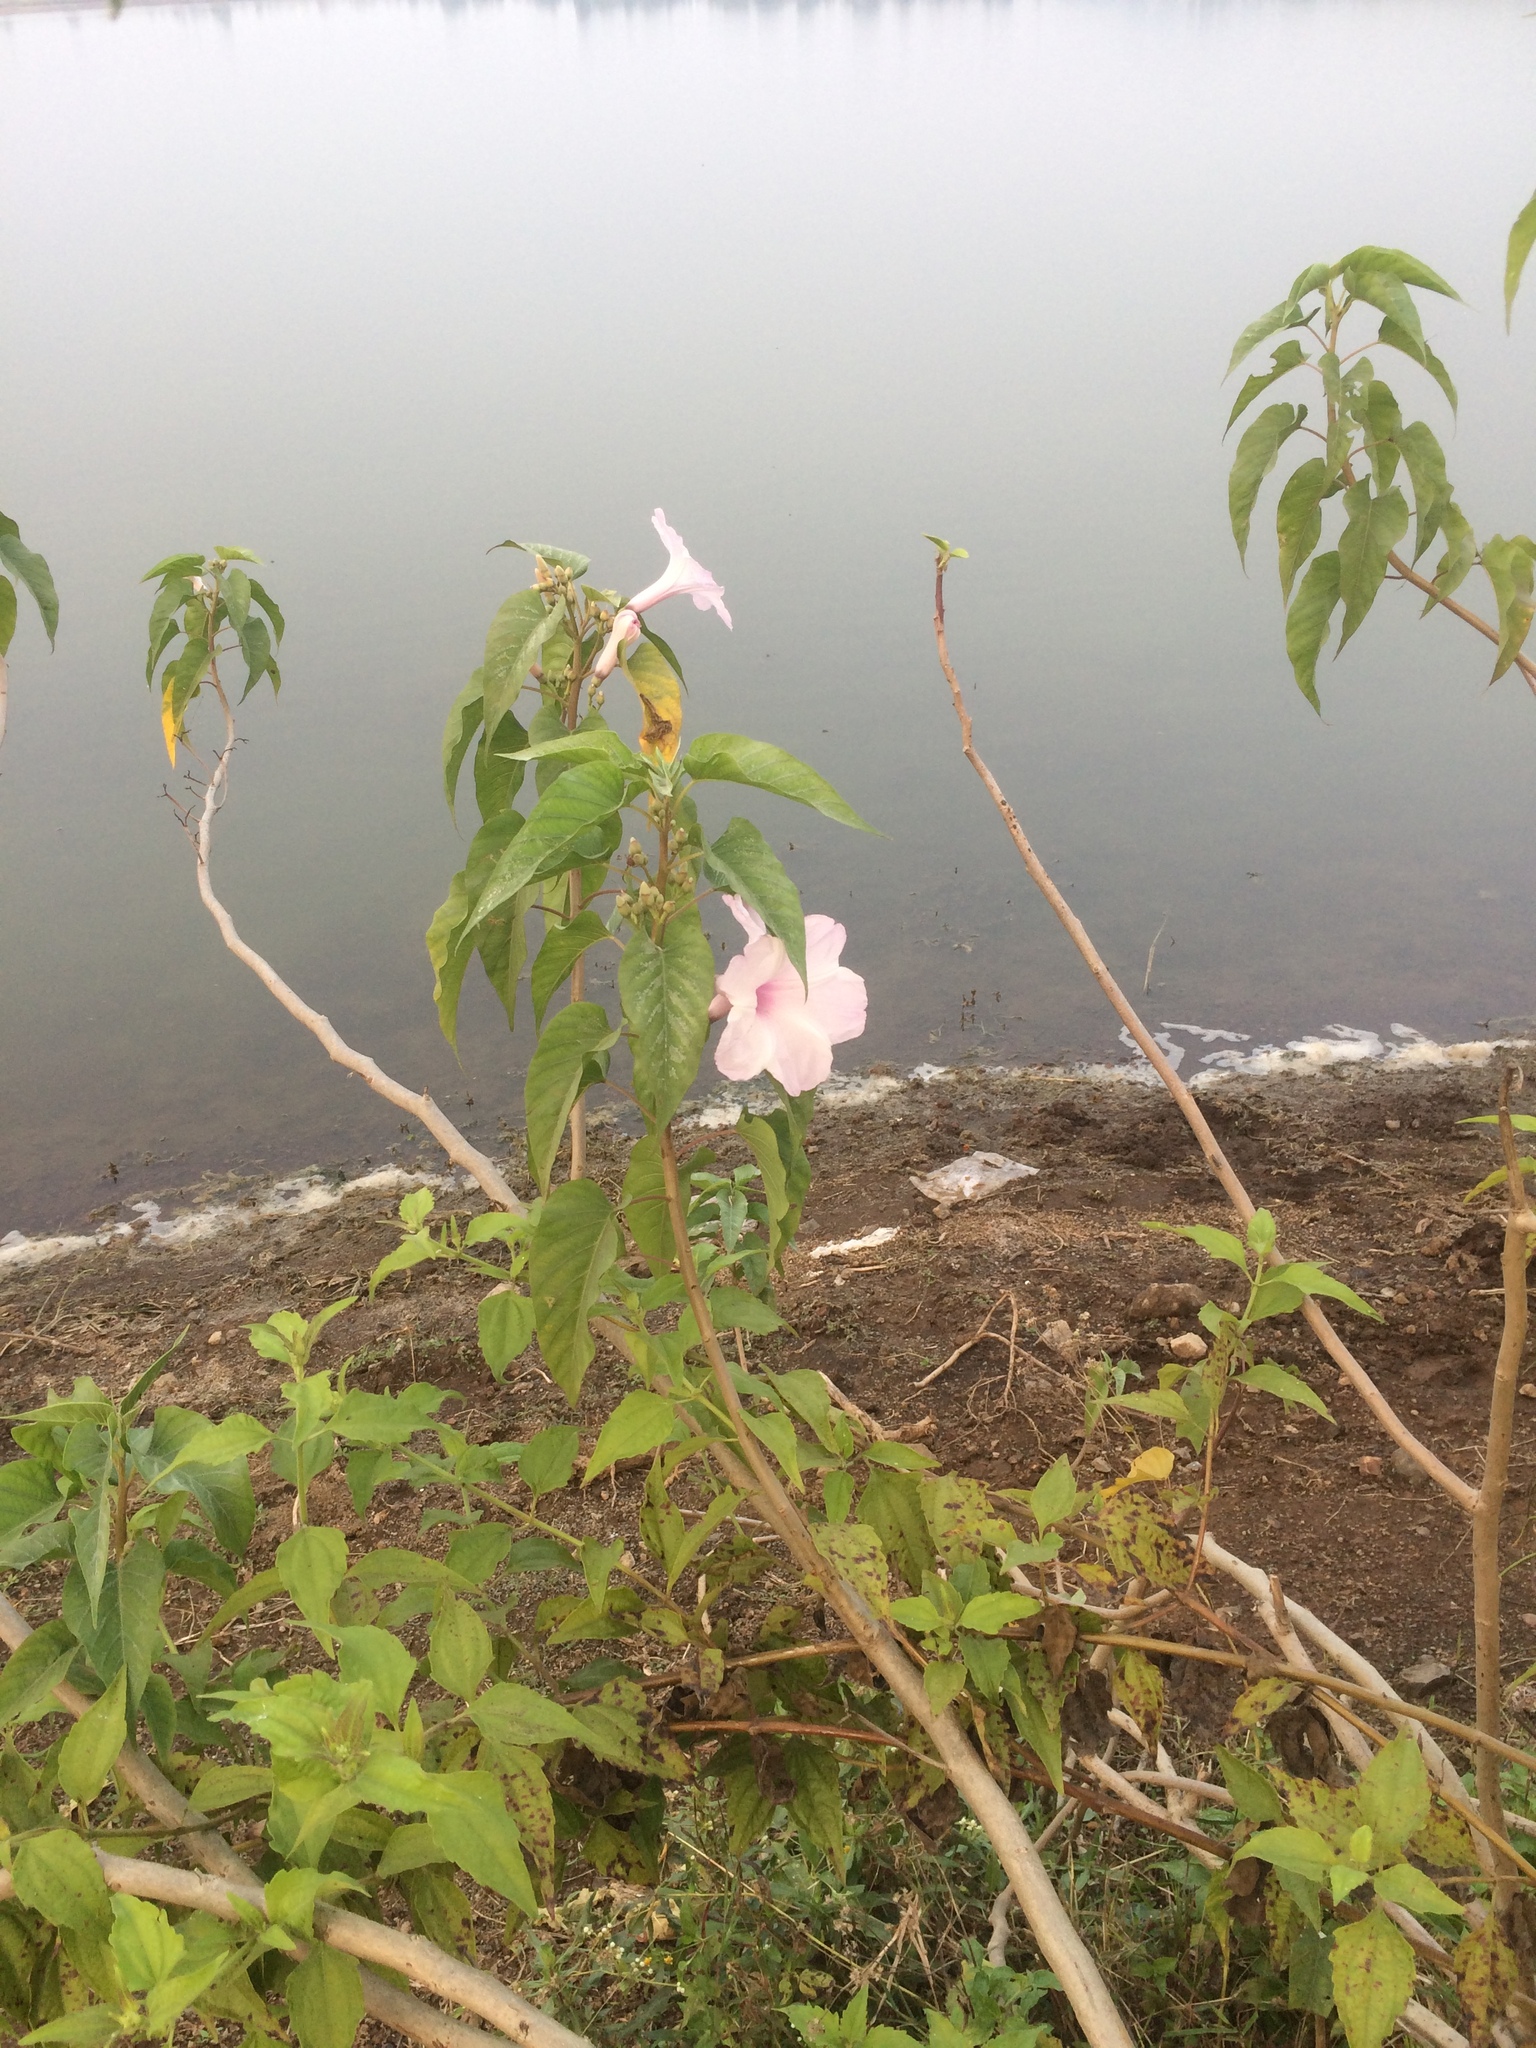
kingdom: Plantae
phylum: Tracheophyta
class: Magnoliopsida
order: Solanales
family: Convolvulaceae
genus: Ipomoea
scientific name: Ipomoea carnea
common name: Morning-glory
